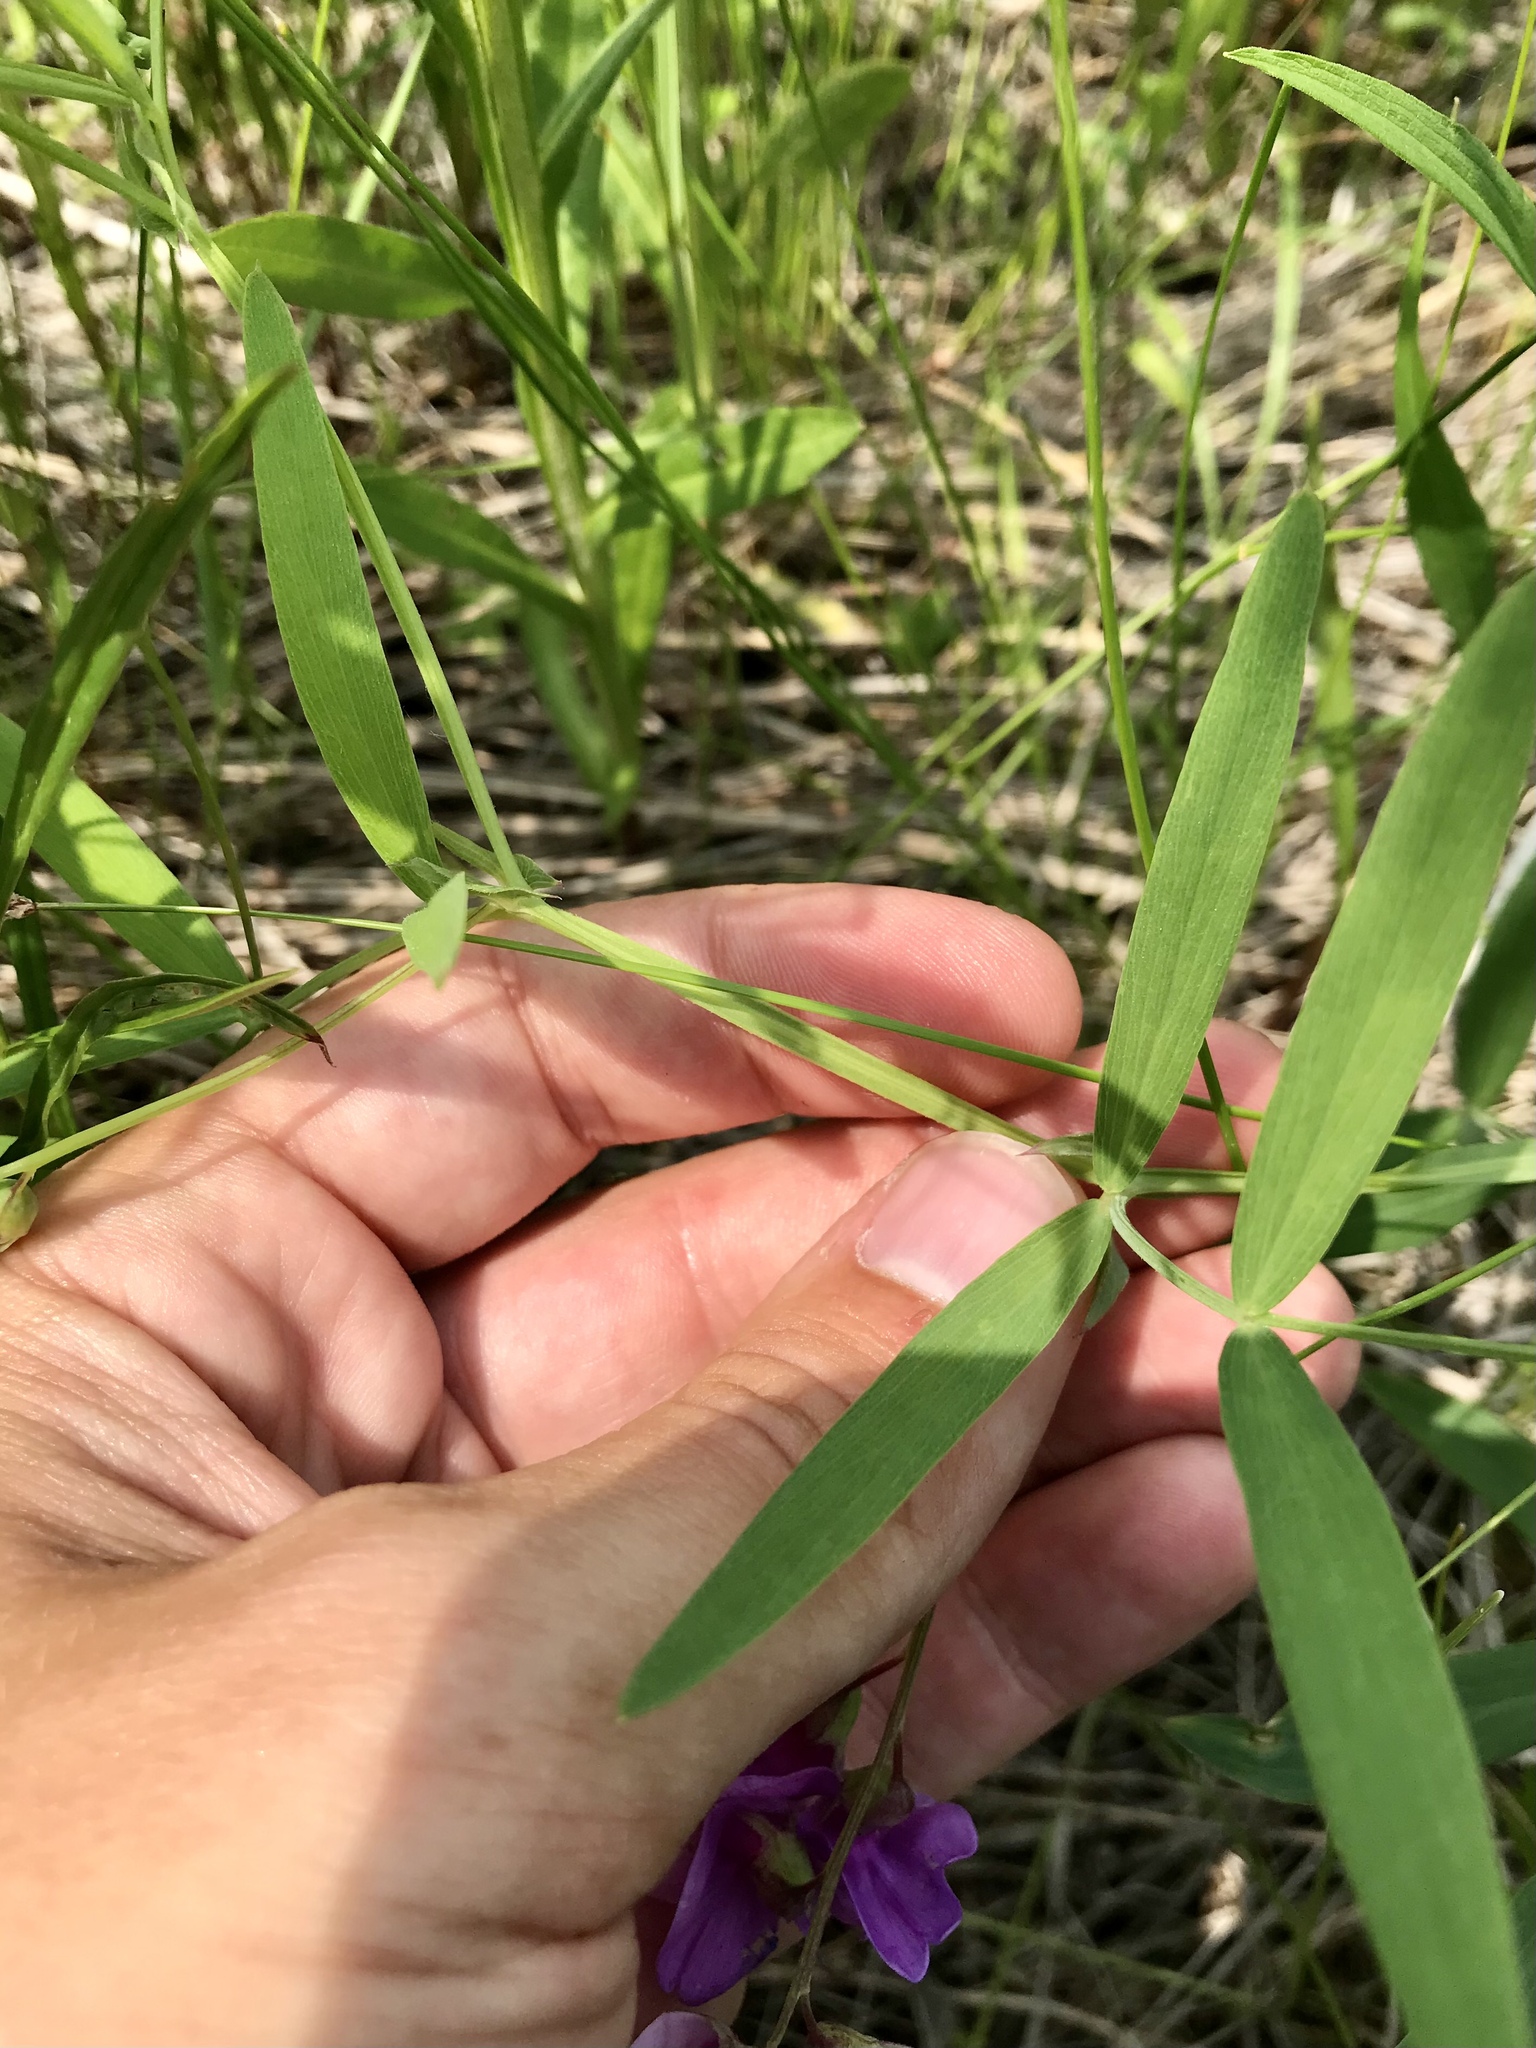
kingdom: Plantae
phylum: Tracheophyta
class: Magnoliopsida
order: Fabales
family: Fabaceae
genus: Lathyrus
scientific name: Lathyrus palustris
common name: Marsh pea
